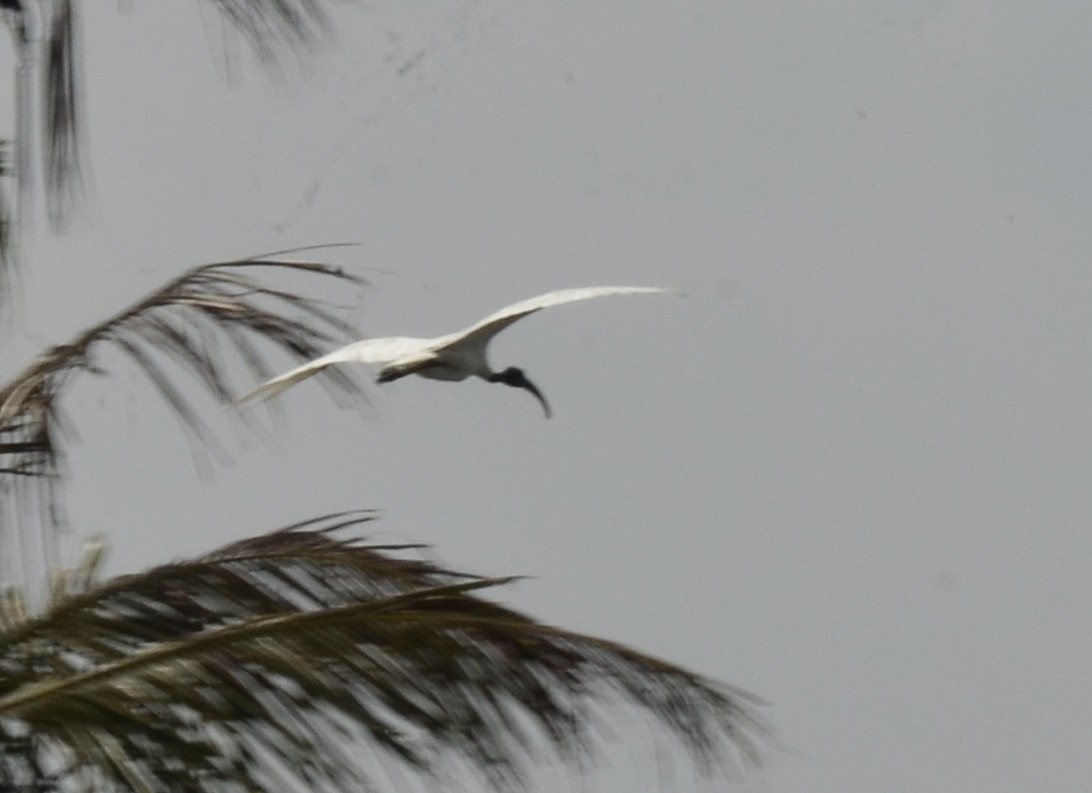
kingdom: Animalia
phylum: Chordata
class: Aves
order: Pelecaniformes
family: Threskiornithidae
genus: Threskiornis
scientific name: Threskiornis melanocephalus
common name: Black-headed ibis
